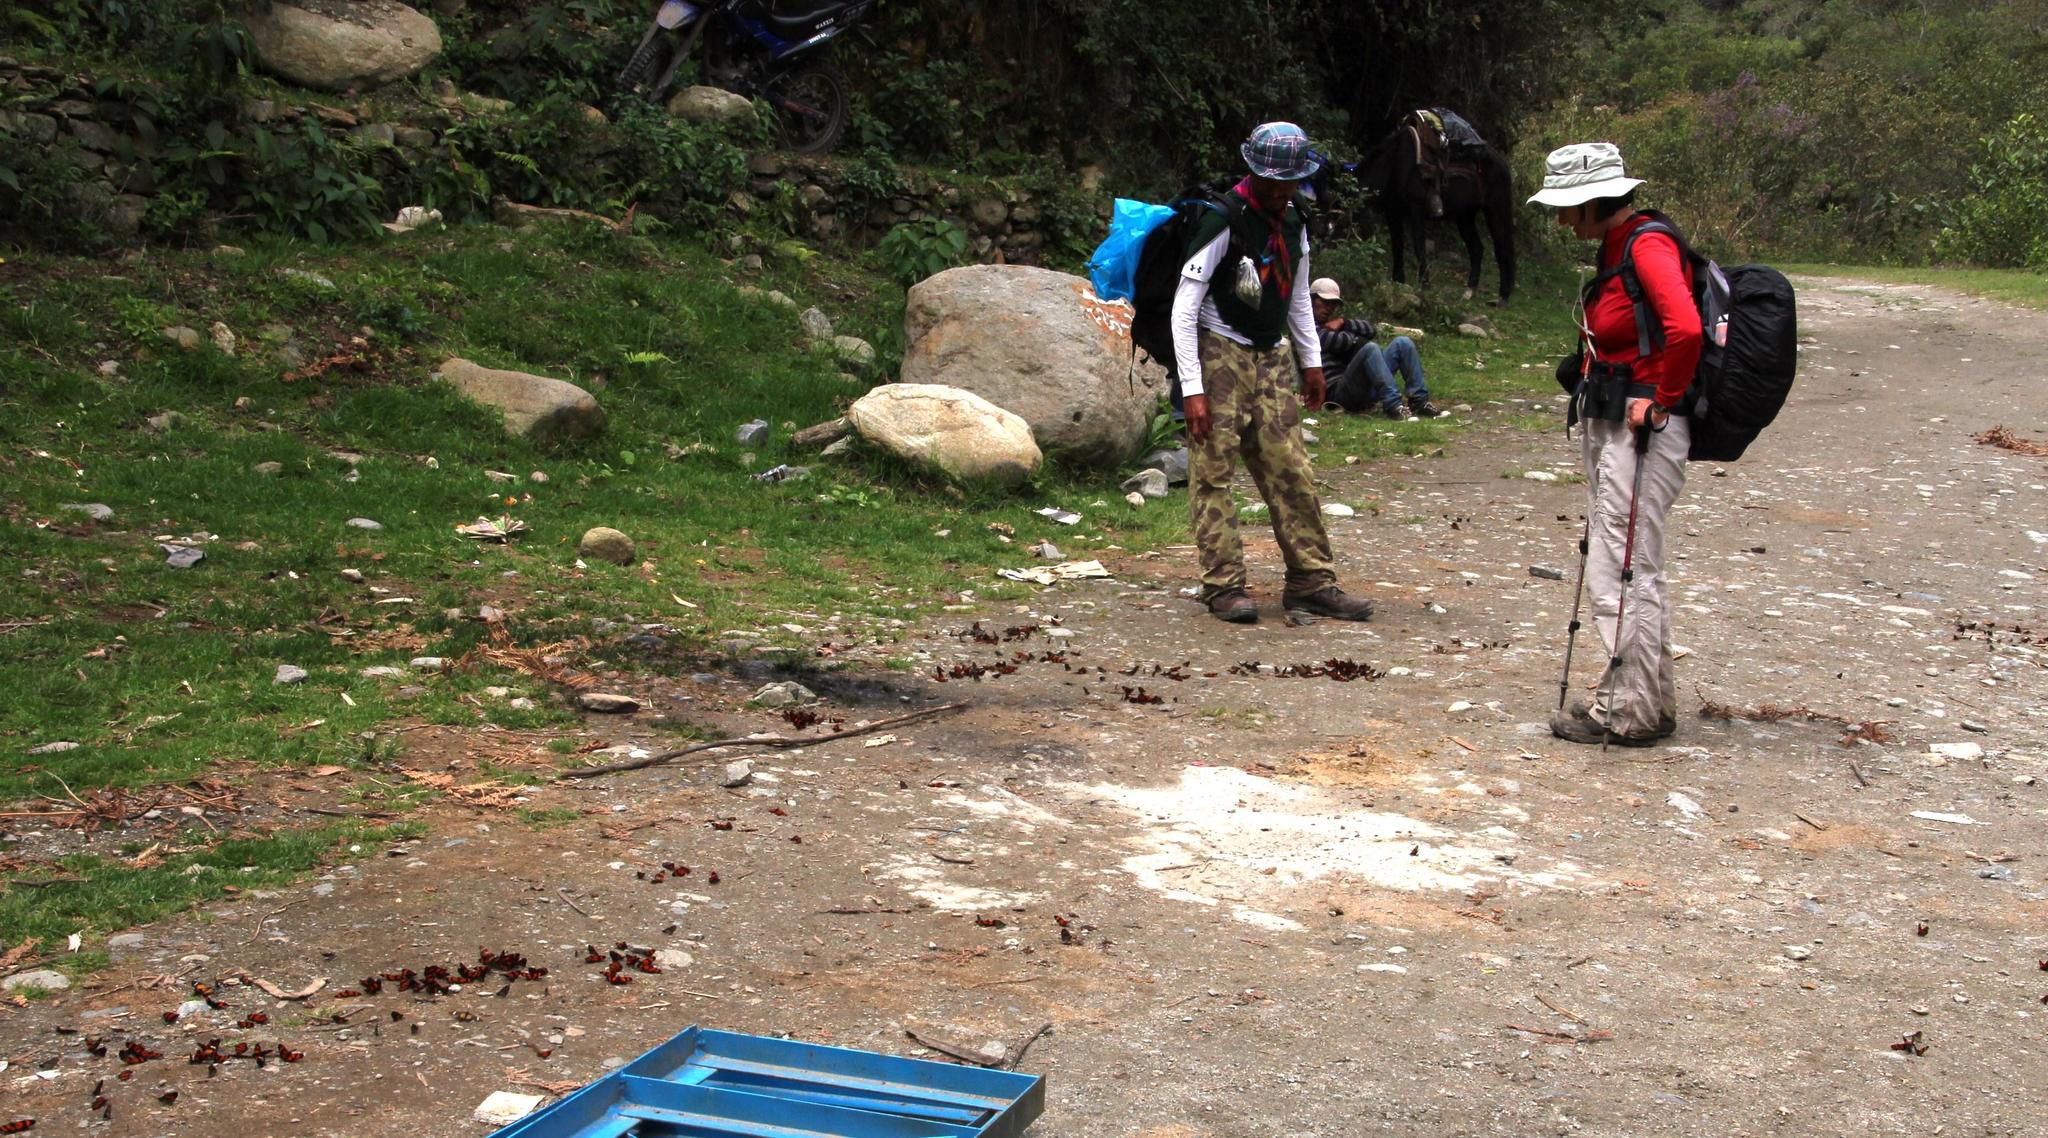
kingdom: Animalia
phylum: Arthropoda
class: Insecta
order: Lepidoptera
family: Nymphalidae
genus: Actinote
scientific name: Actinote negra
